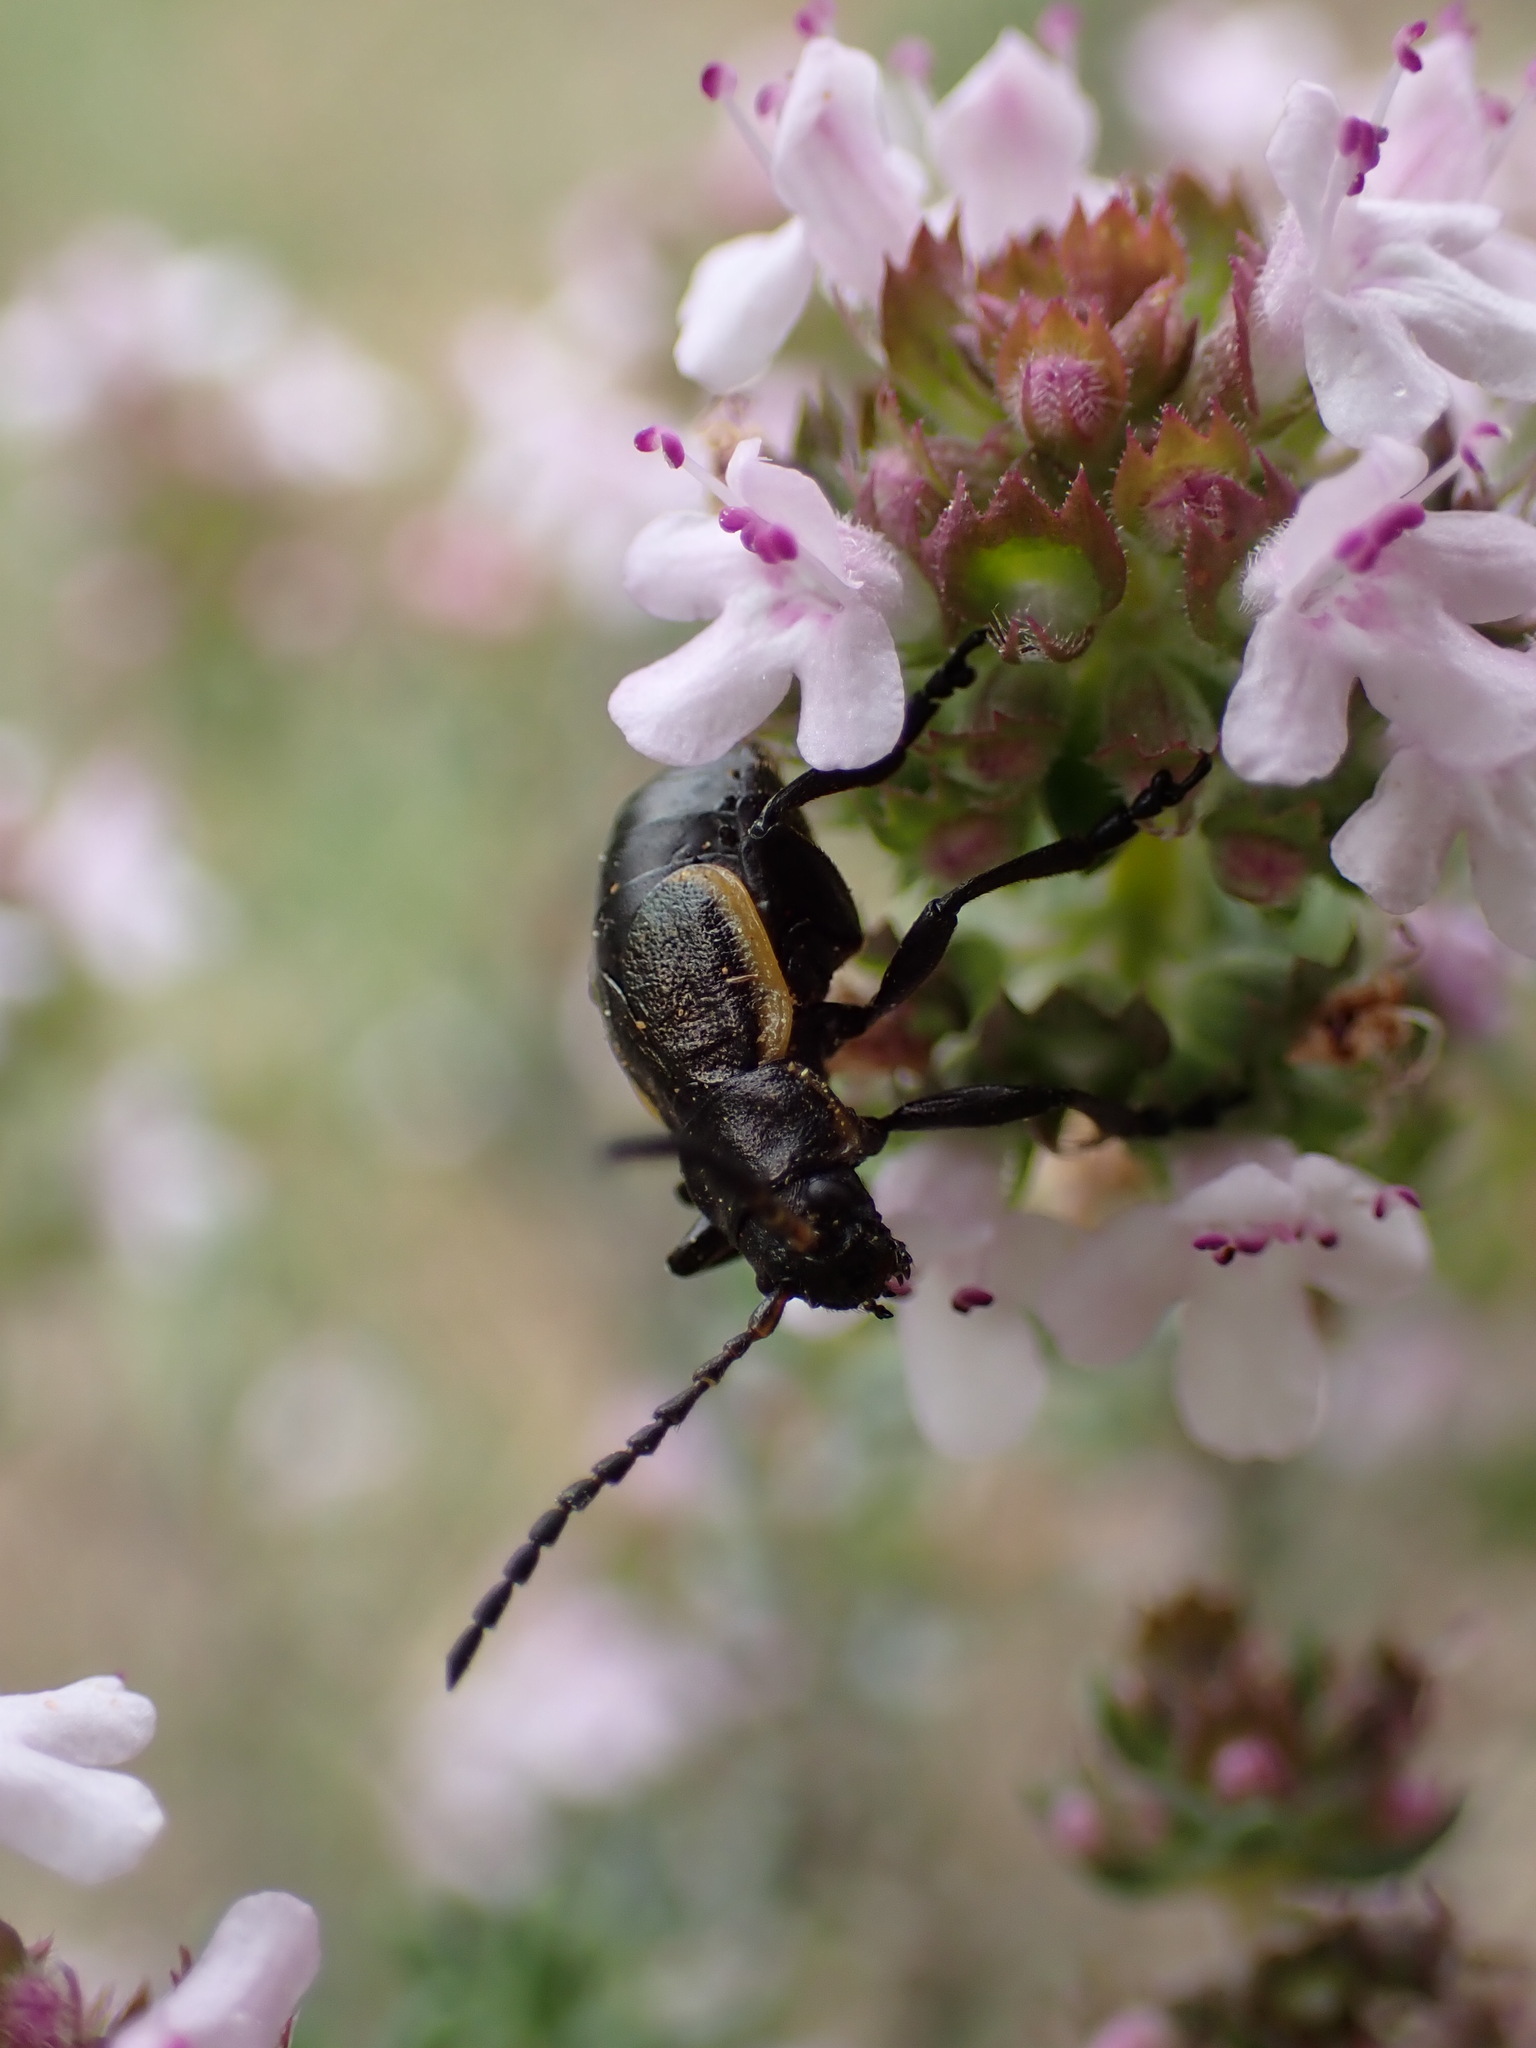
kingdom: Animalia
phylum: Arthropoda
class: Insecta
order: Coleoptera
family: Chrysomelidae
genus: Arima
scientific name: Arima marginata
